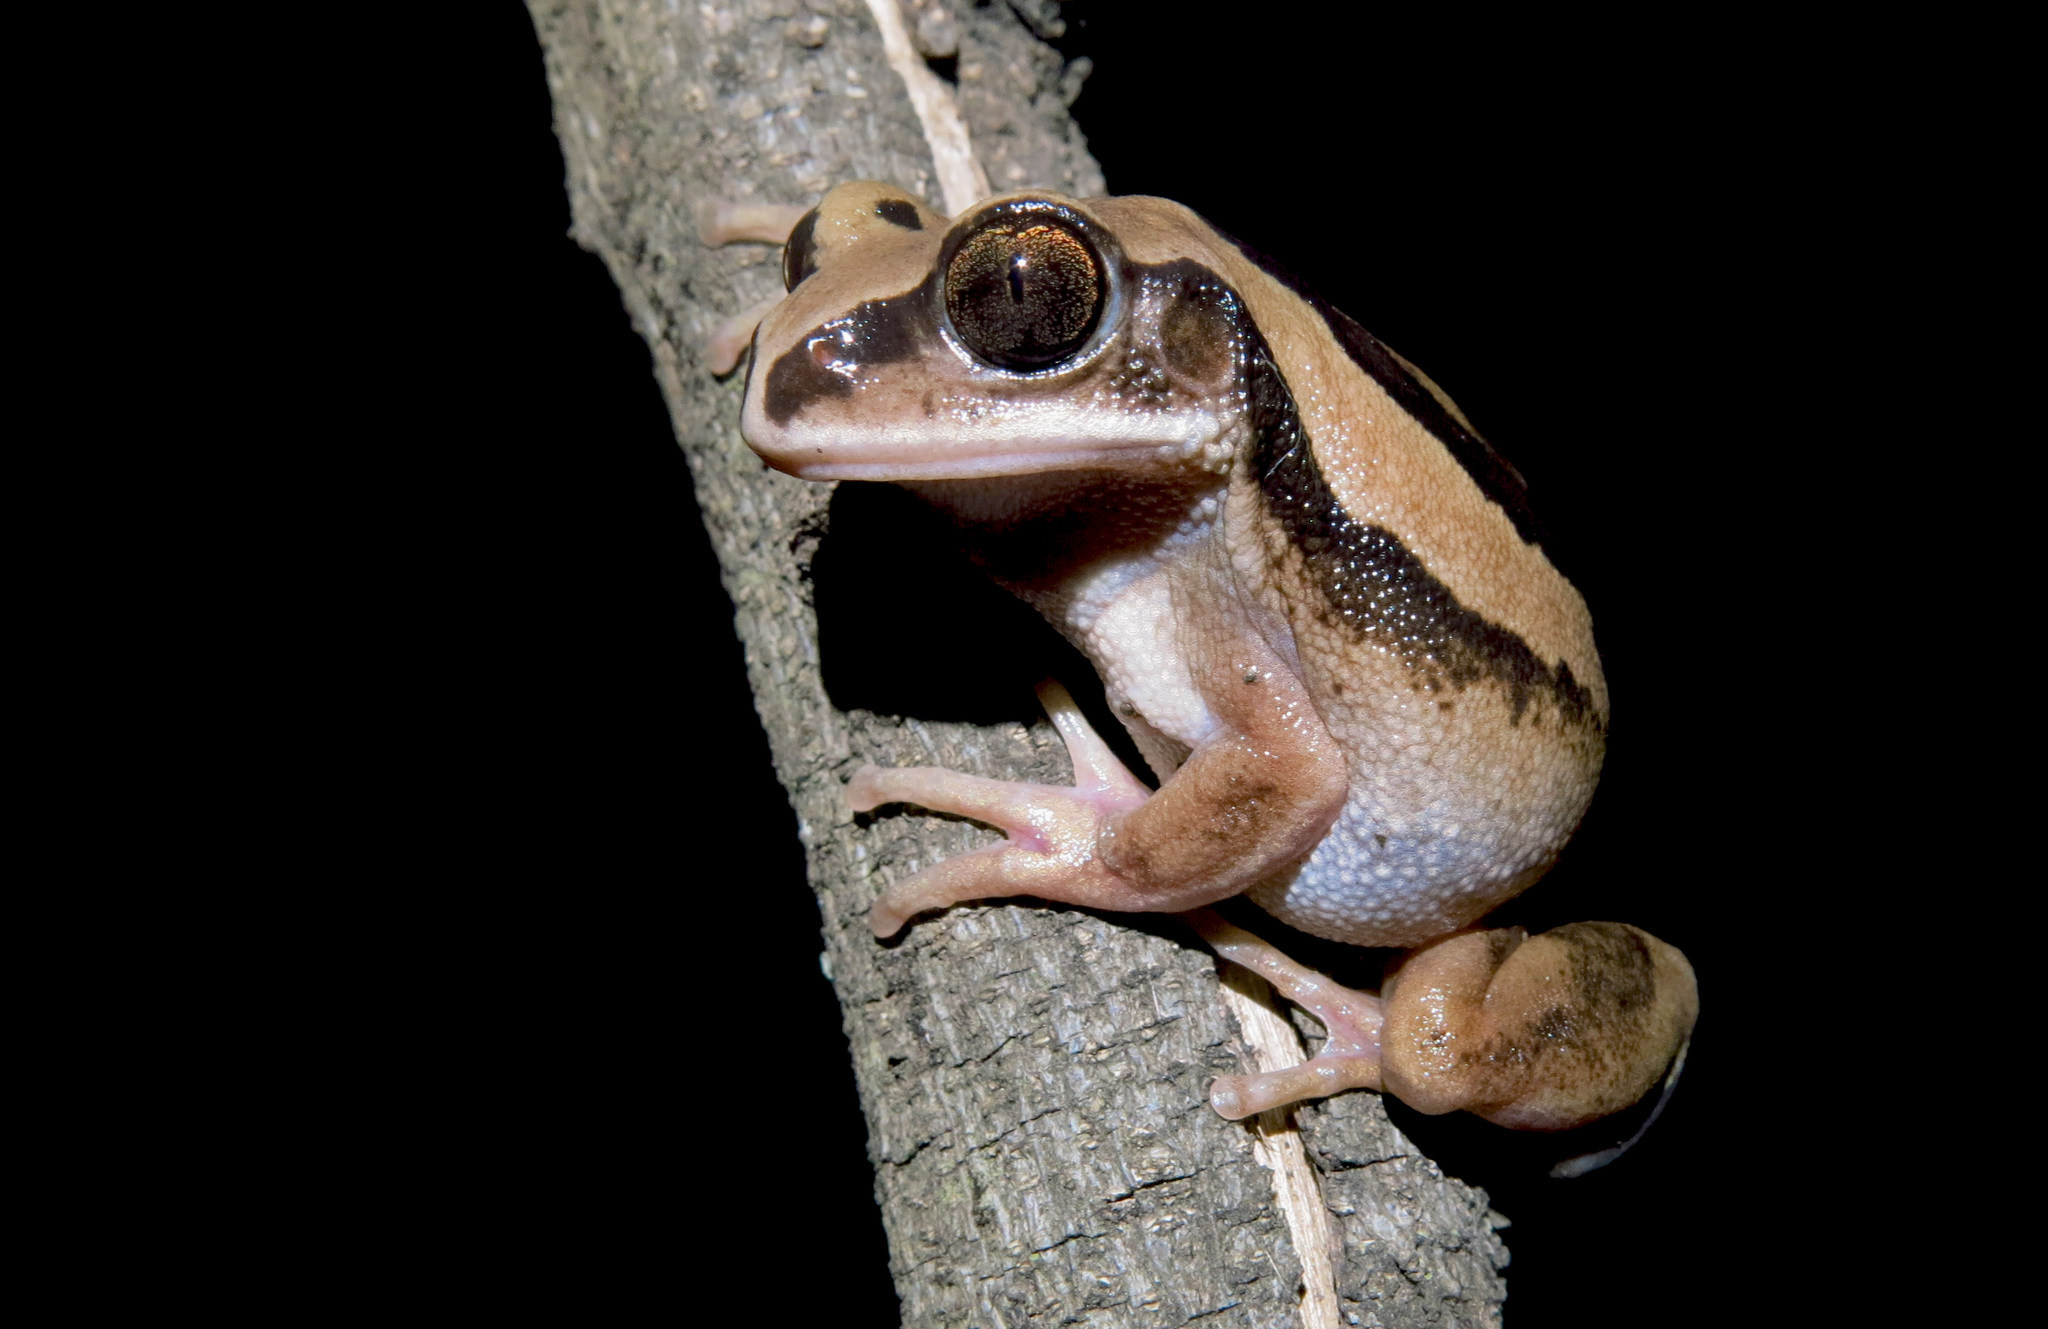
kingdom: Animalia
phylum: Chordata
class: Amphibia
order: Anura
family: Arthroleptidae
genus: Leptopelis
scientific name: Leptopelis mossambicus
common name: Mozambique tree frog
